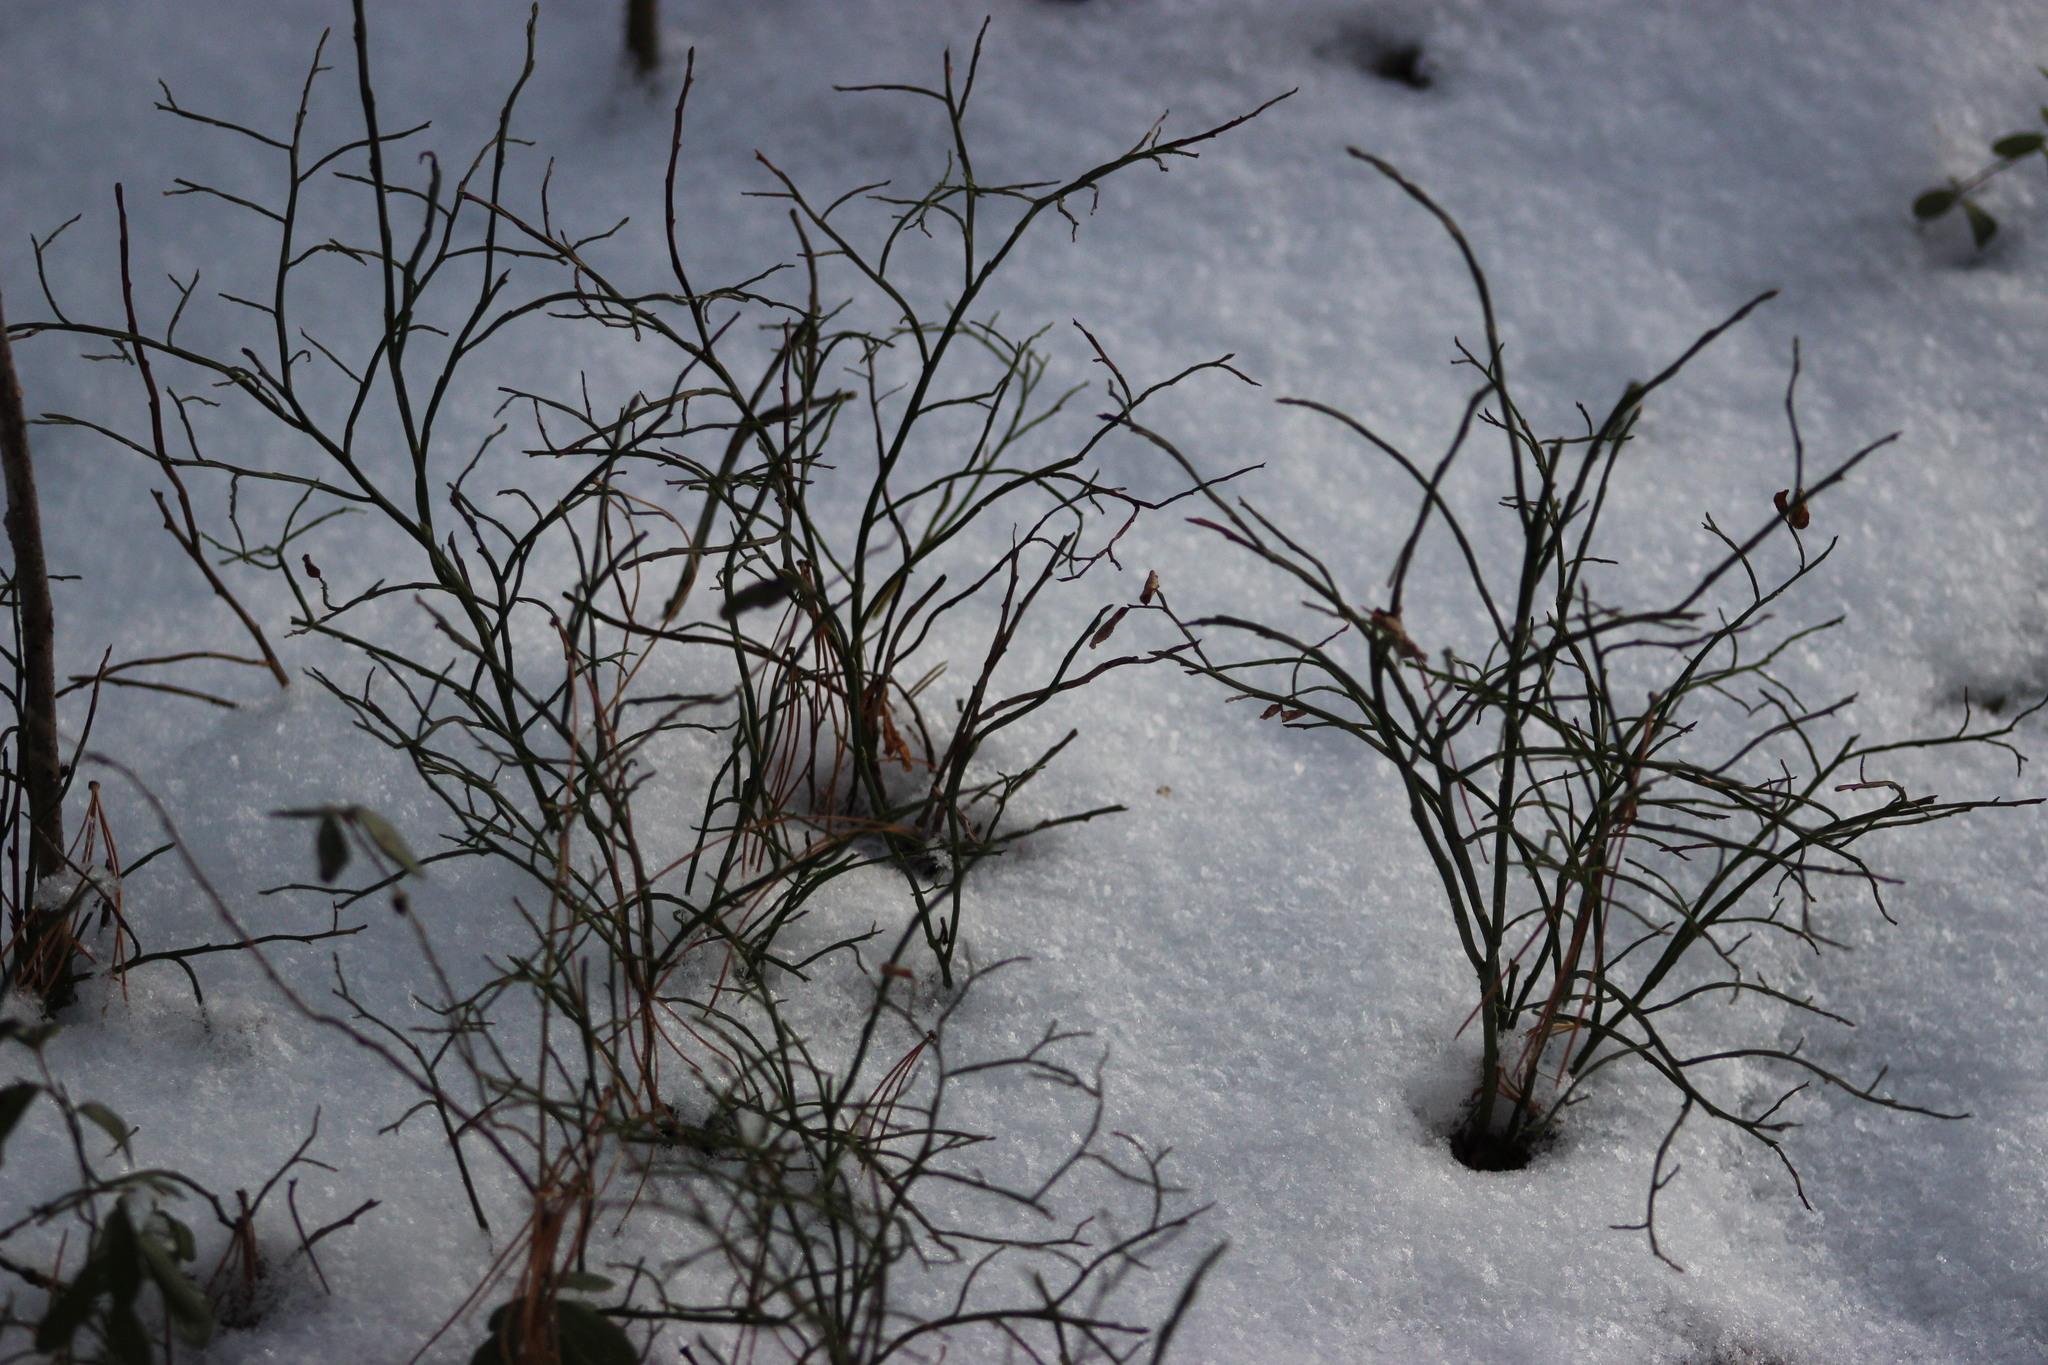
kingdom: Plantae
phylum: Tracheophyta
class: Magnoliopsida
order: Ericales
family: Ericaceae
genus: Vaccinium
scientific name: Vaccinium myrtillus
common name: Bilberry
